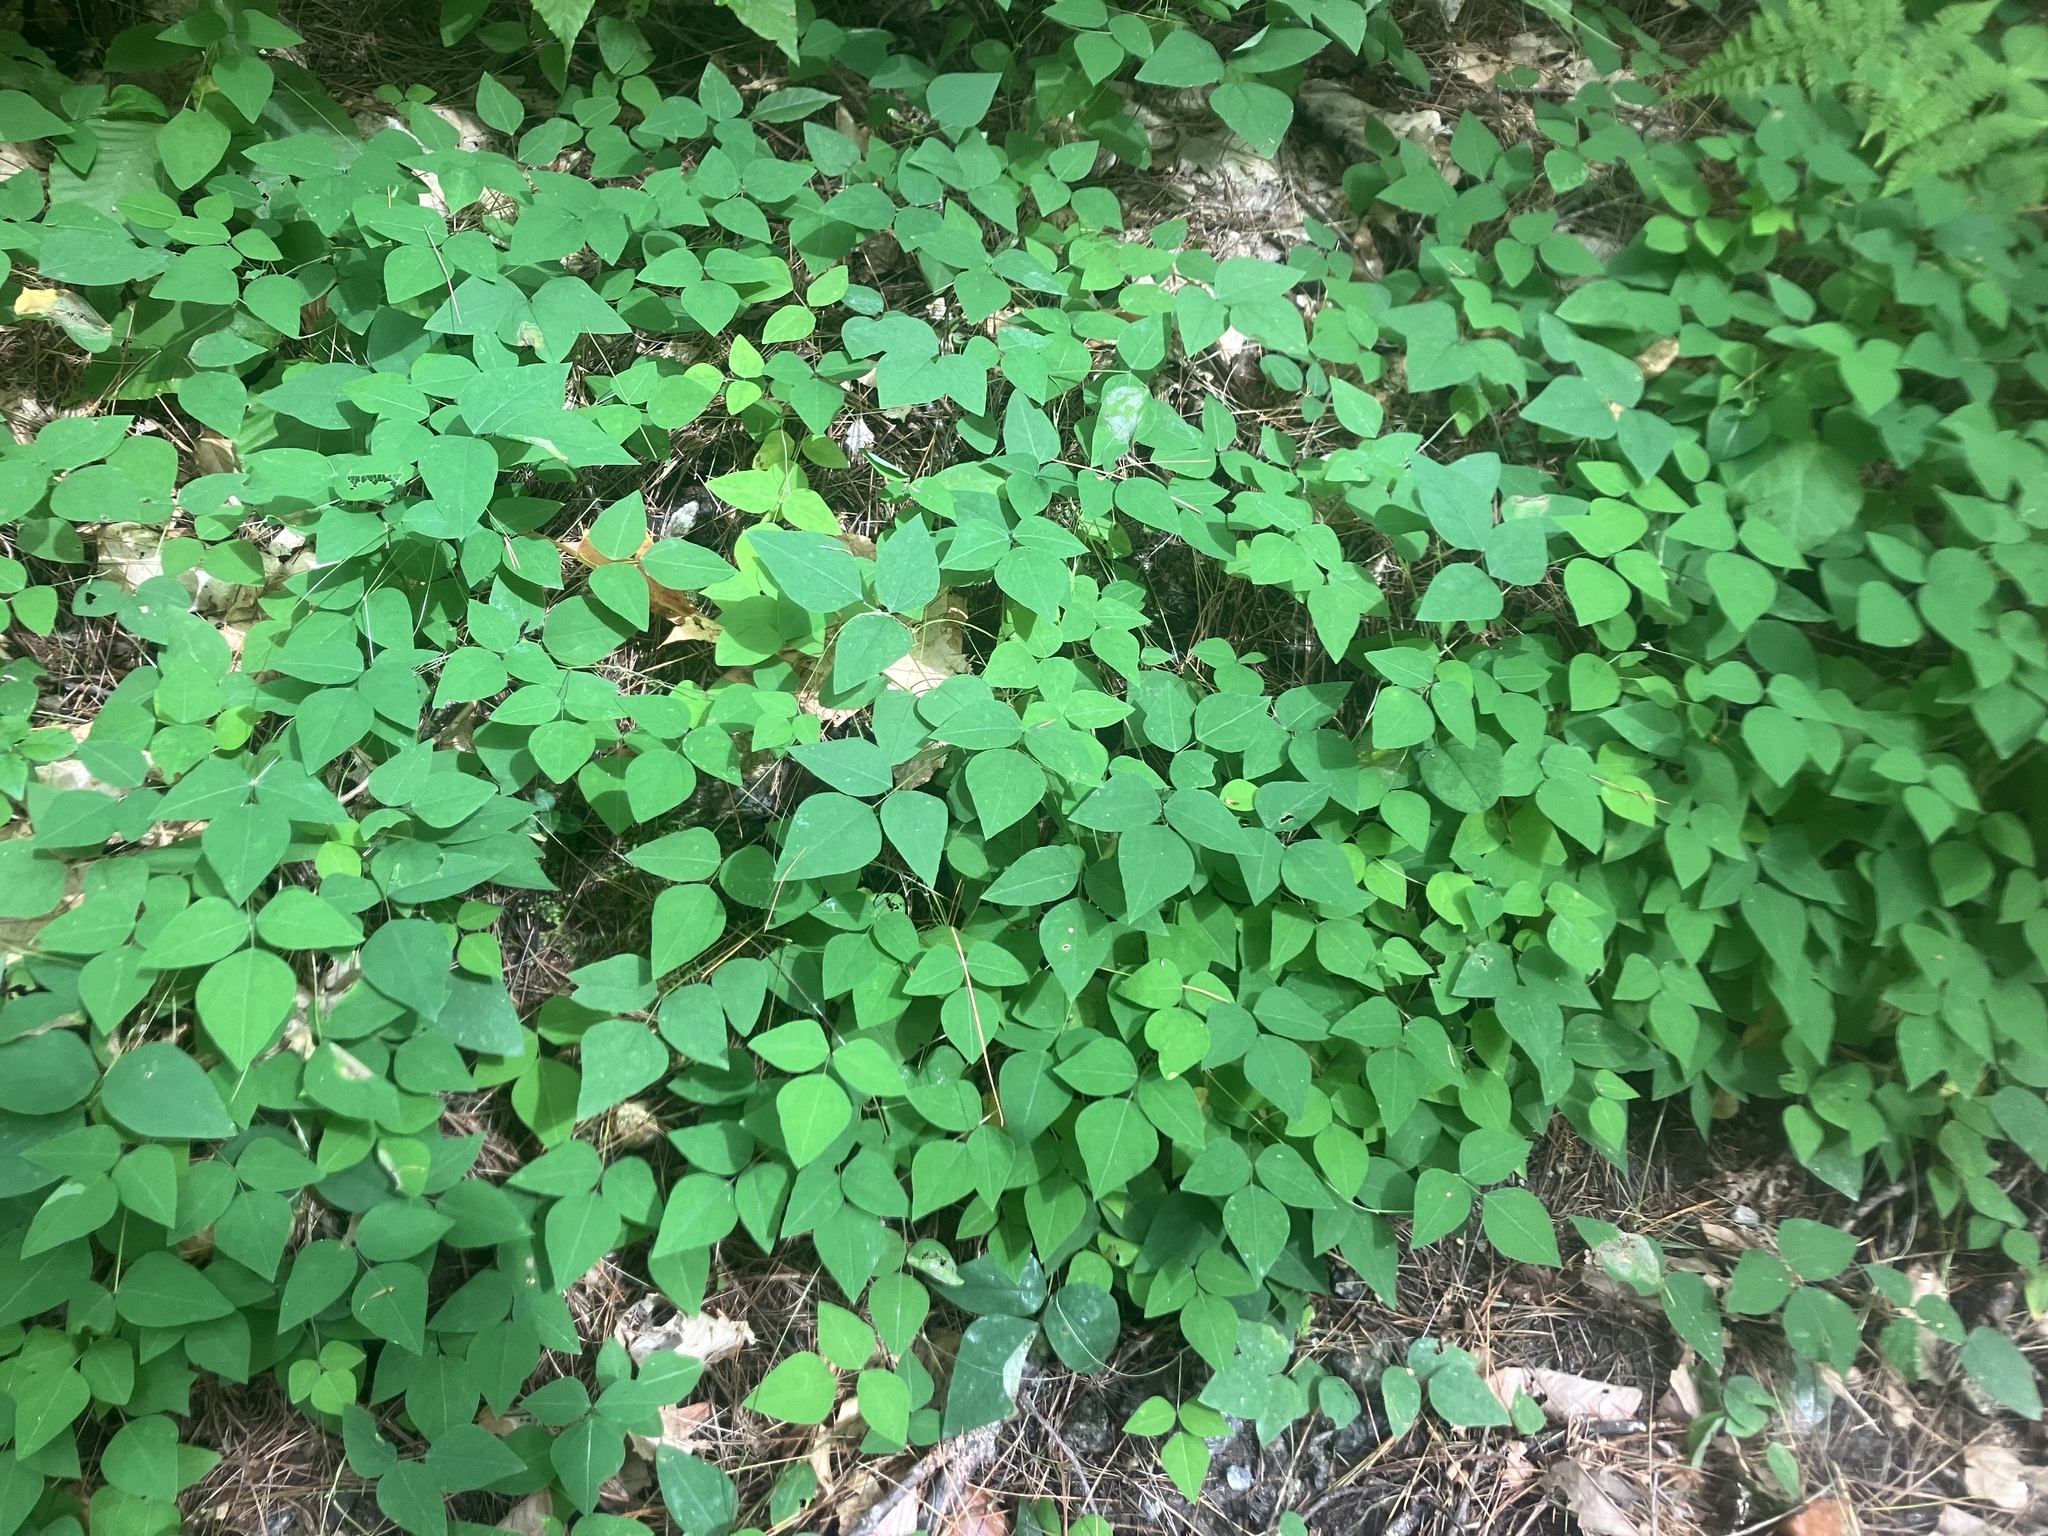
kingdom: Plantae
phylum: Tracheophyta
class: Magnoliopsida
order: Fabales
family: Fabaceae
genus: Amphicarpaea
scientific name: Amphicarpaea bracteata
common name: American hog peanut
